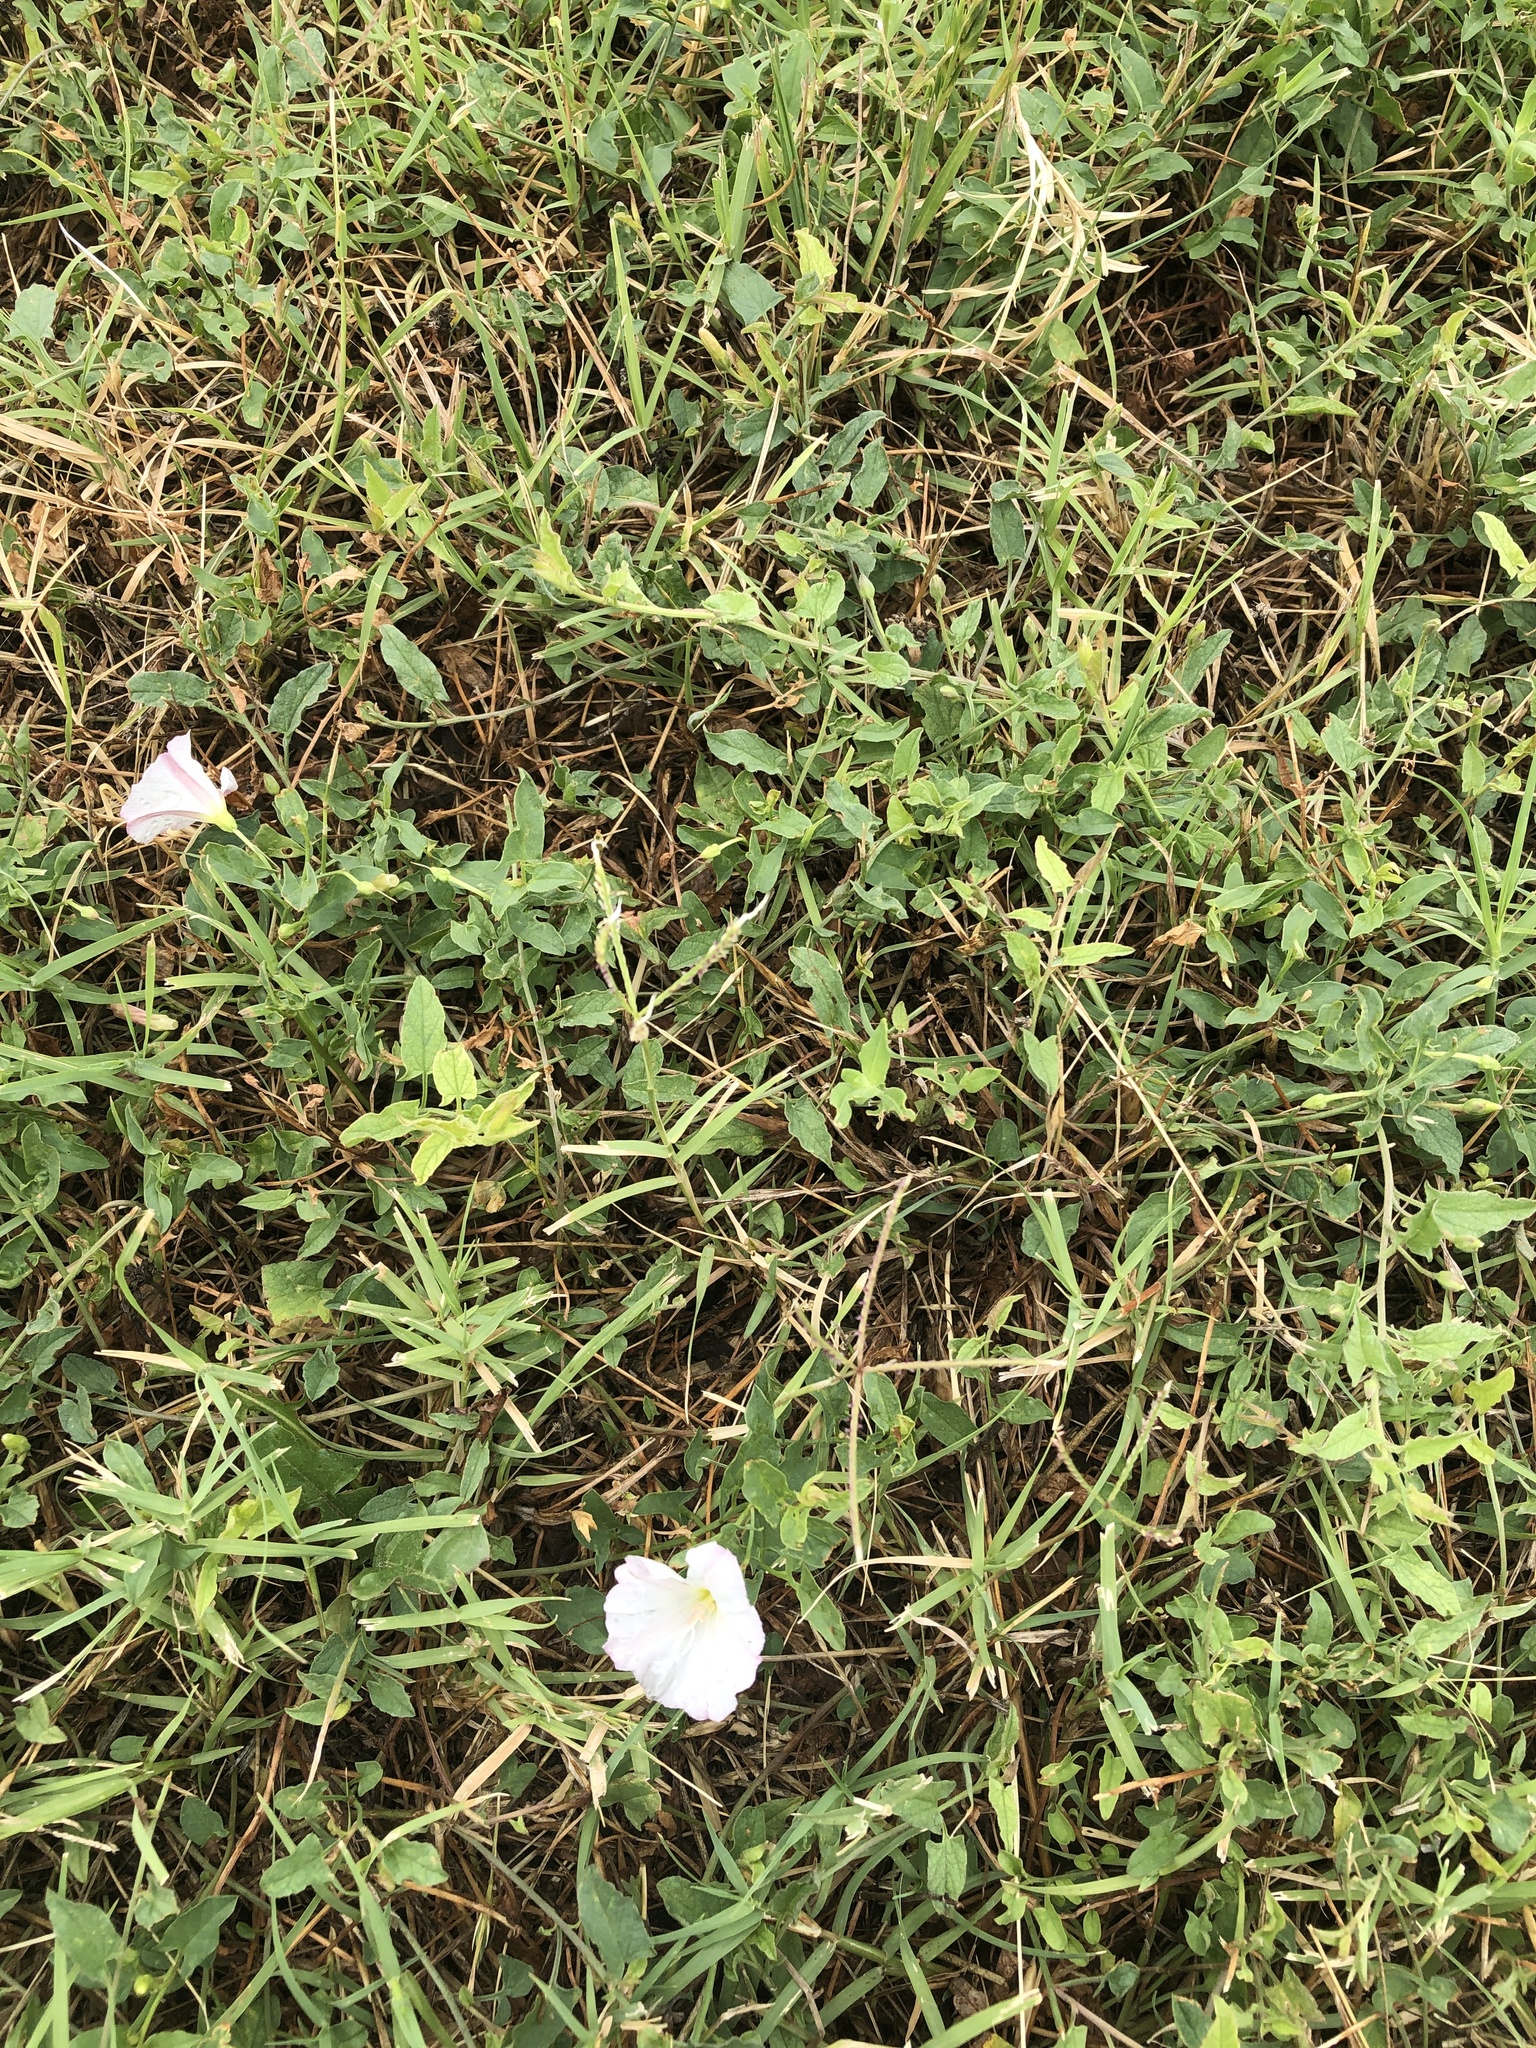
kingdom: Plantae
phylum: Tracheophyta
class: Magnoliopsida
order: Solanales
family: Convolvulaceae
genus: Convolvulus
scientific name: Convolvulus arvensis
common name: Field bindweed
